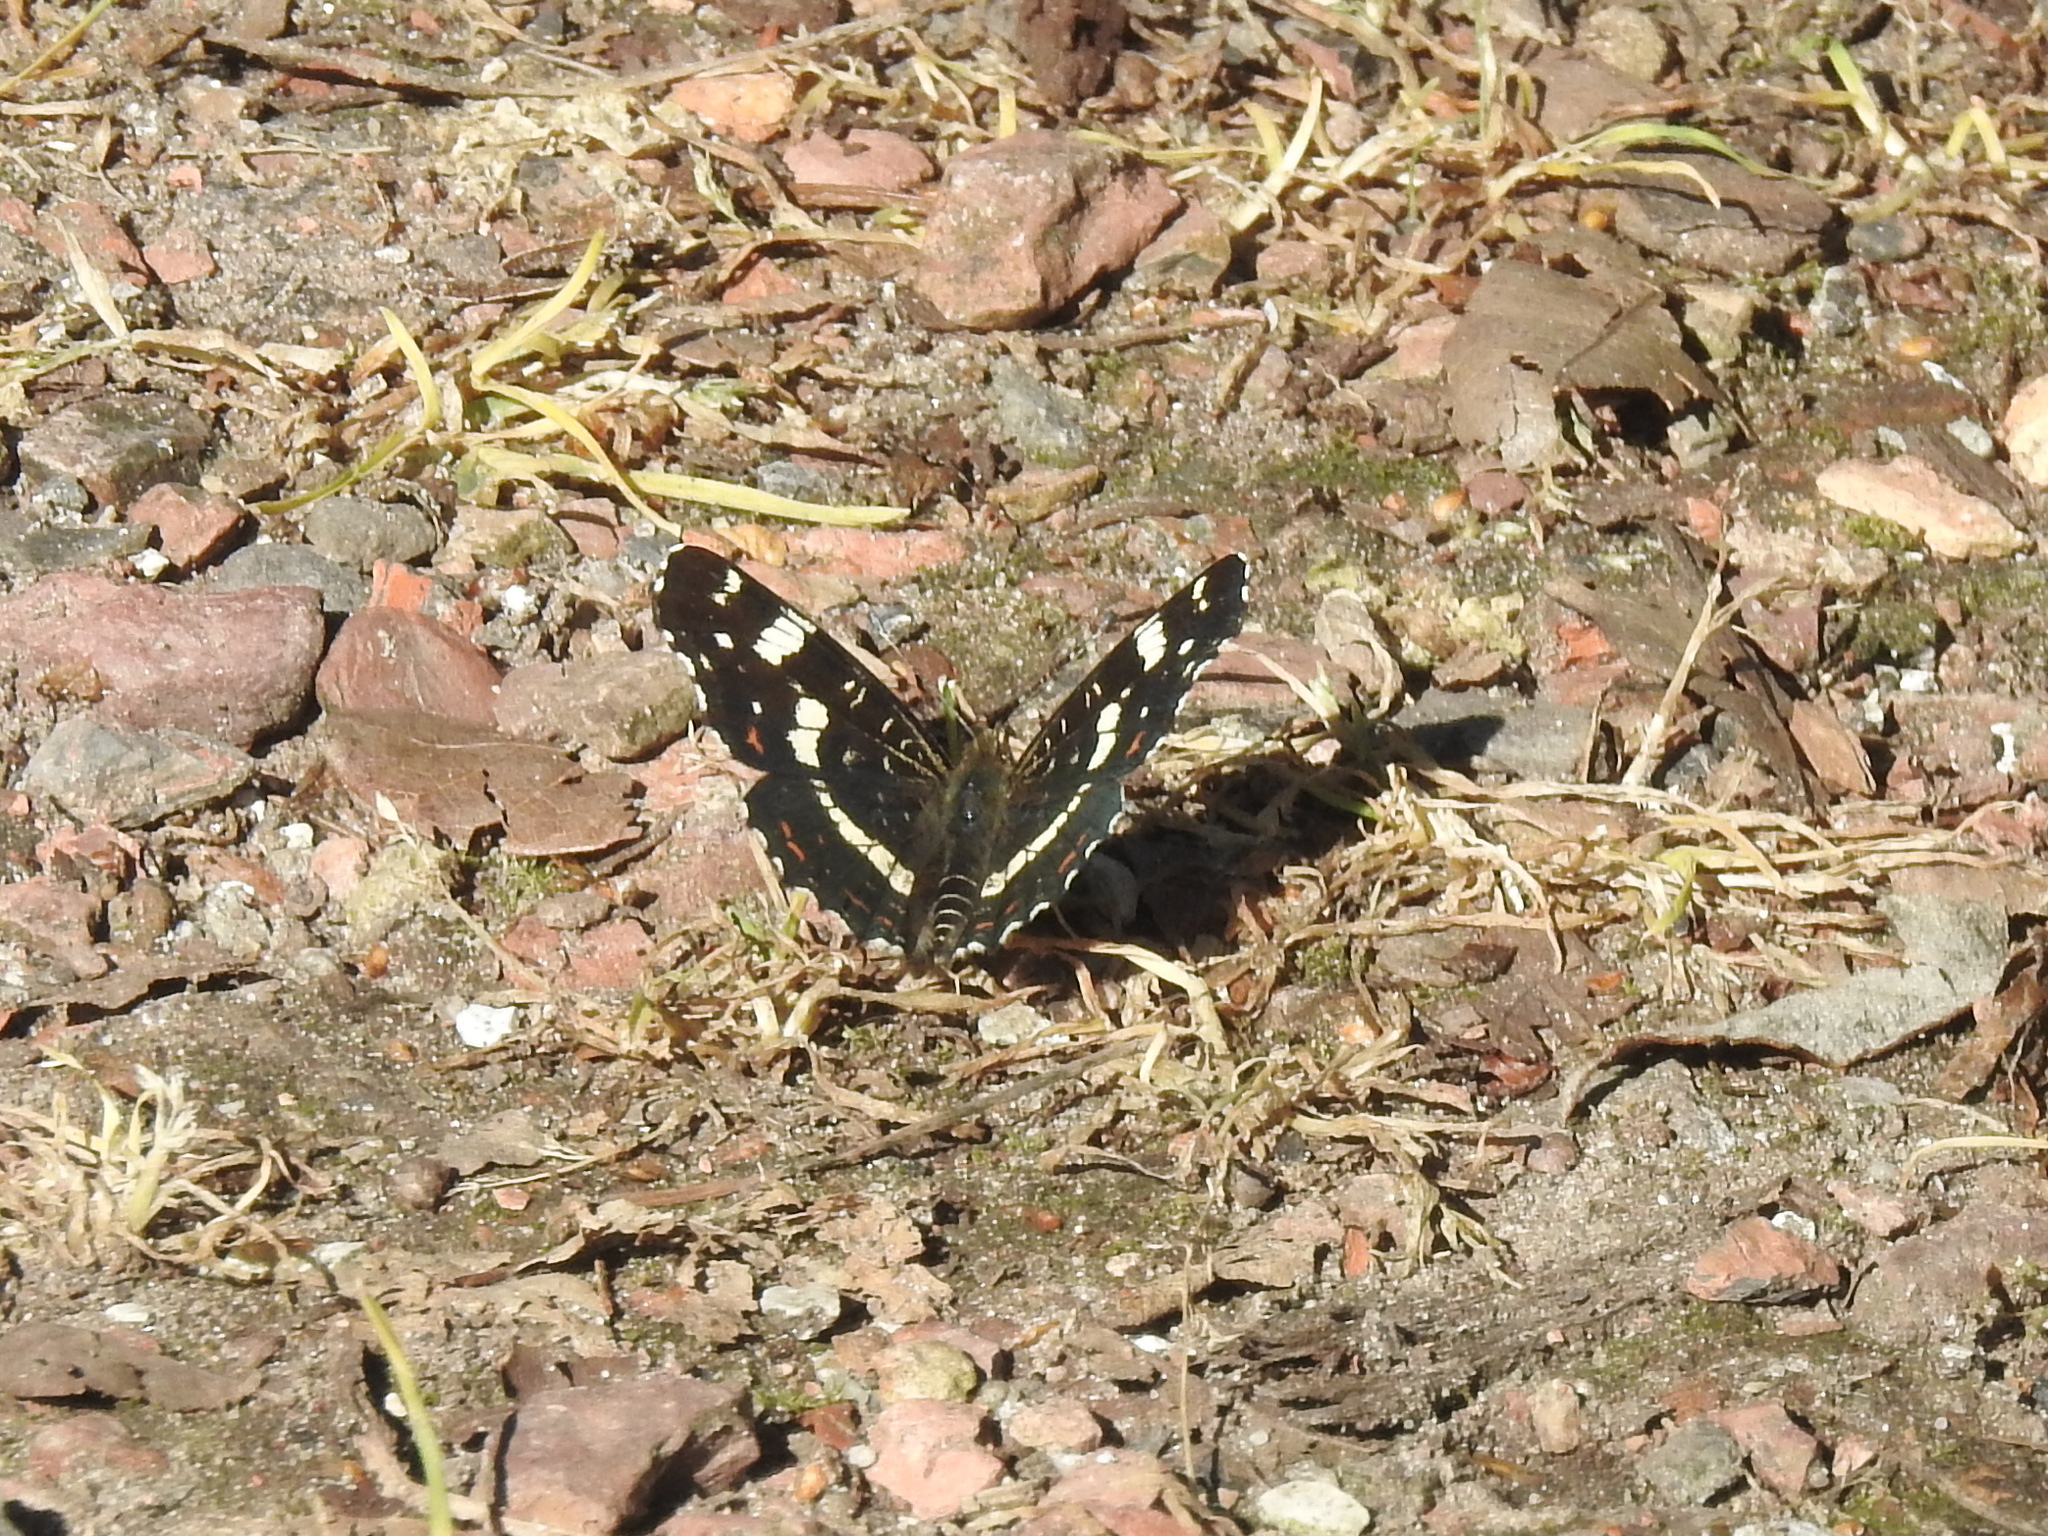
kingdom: Animalia
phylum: Arthropoda
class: Insecta
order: Lepidoptera
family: Nymphalidae
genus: Araschnia
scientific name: Araschnia levana
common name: Map butterfly
